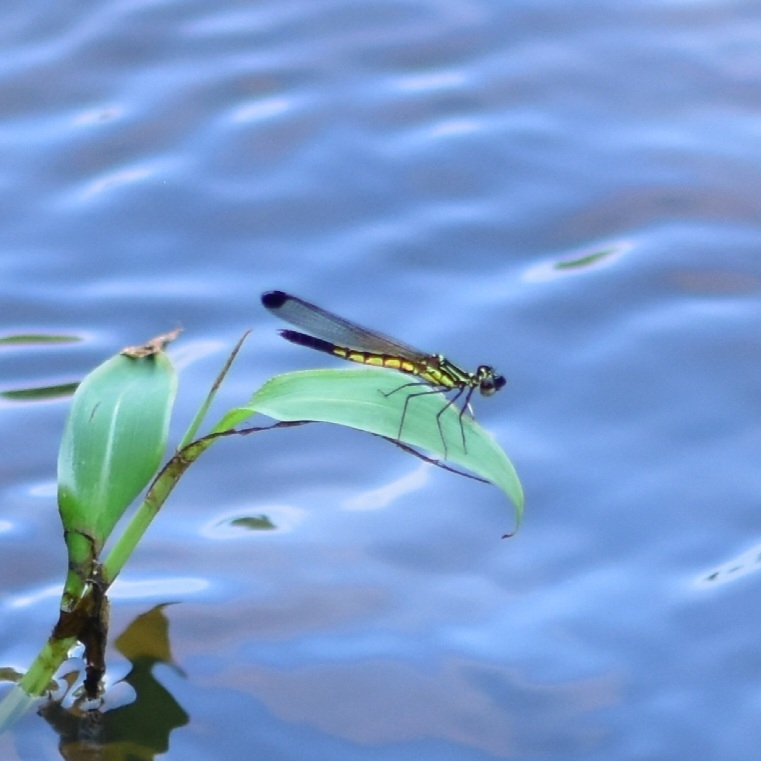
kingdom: Animalia
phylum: Arthropoda
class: Insecta
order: Odonata
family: Chlorocyphidae
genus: Libellago
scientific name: Libellago indica
